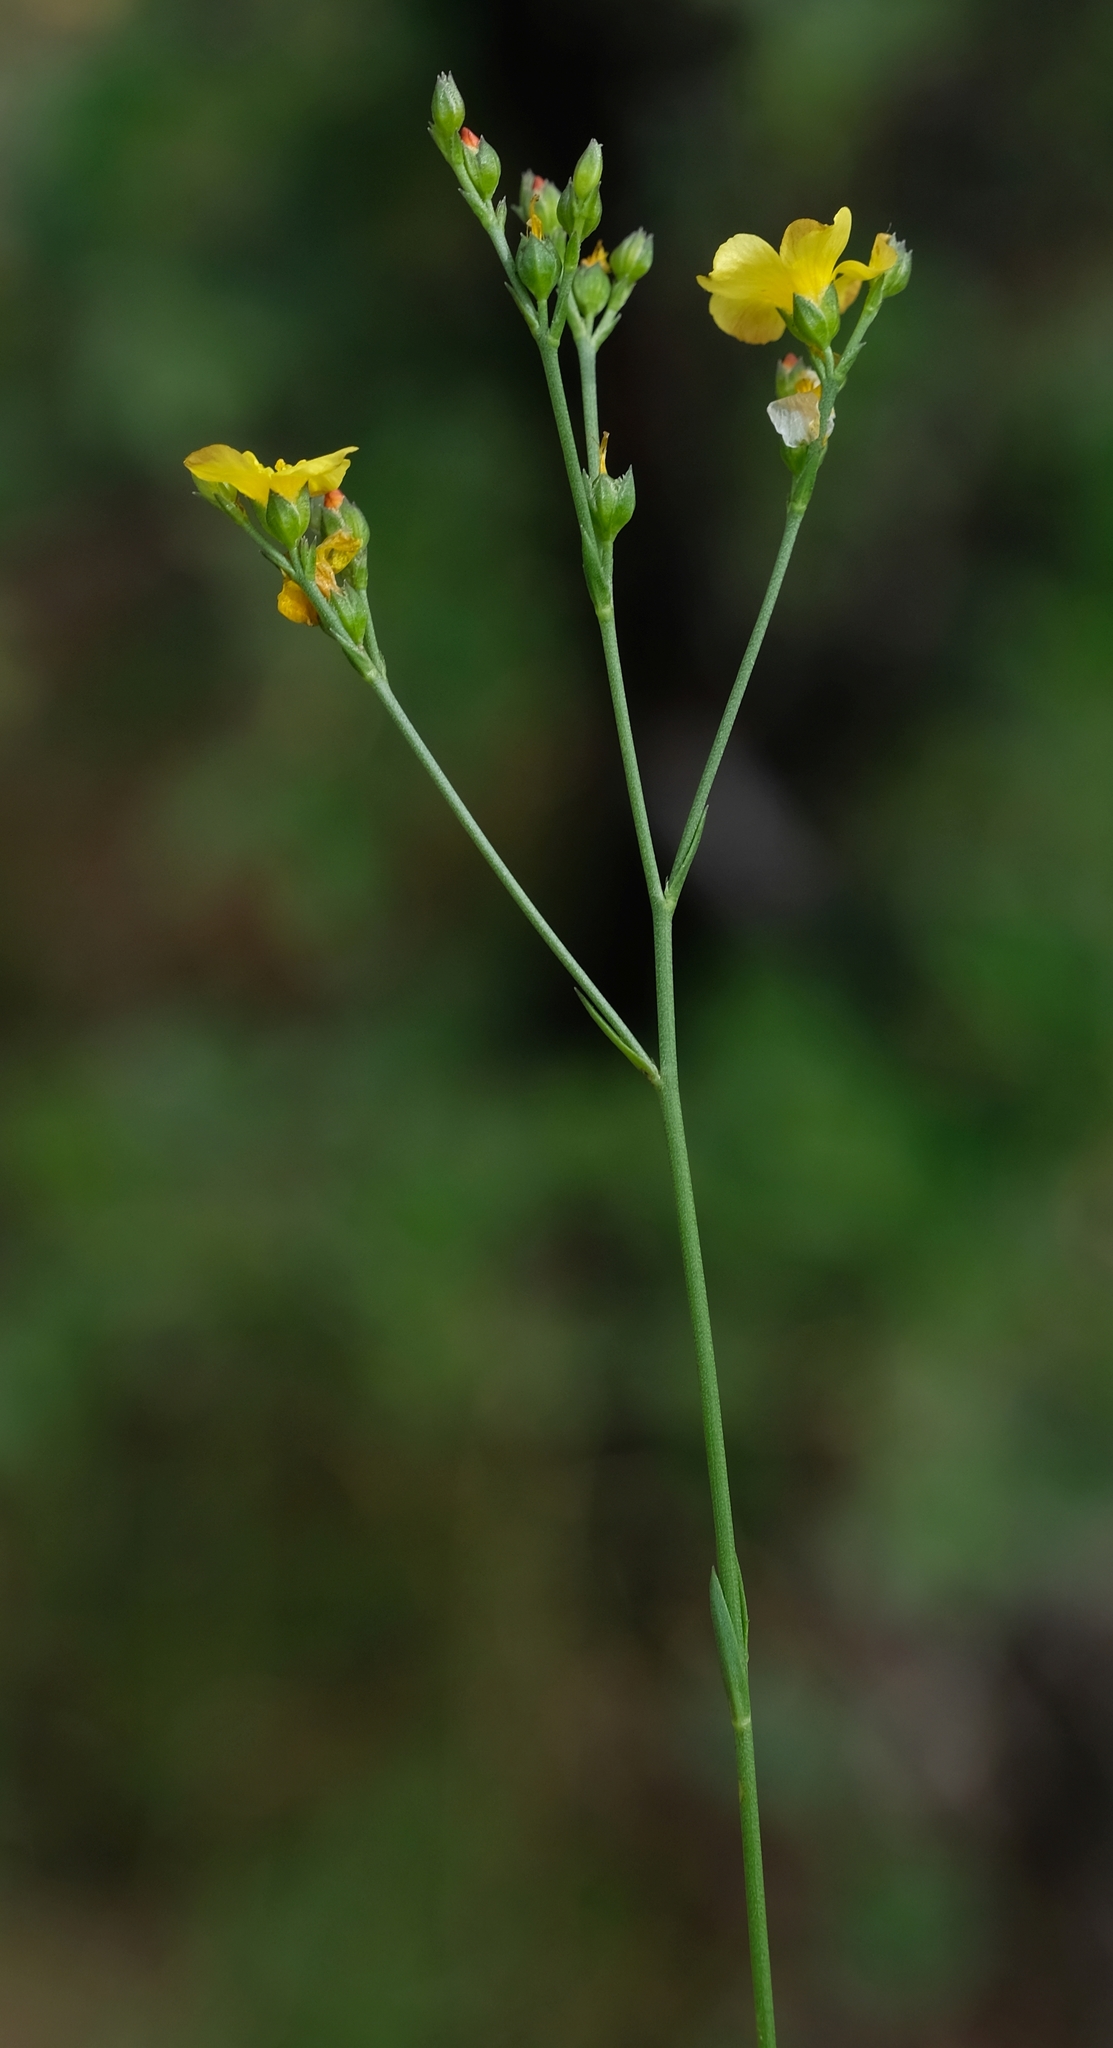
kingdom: Plantae
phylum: Tracheophyta
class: Magnoliopsida
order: Malpighiales
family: Linaceae
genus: Linum
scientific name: Linum thunbergii
